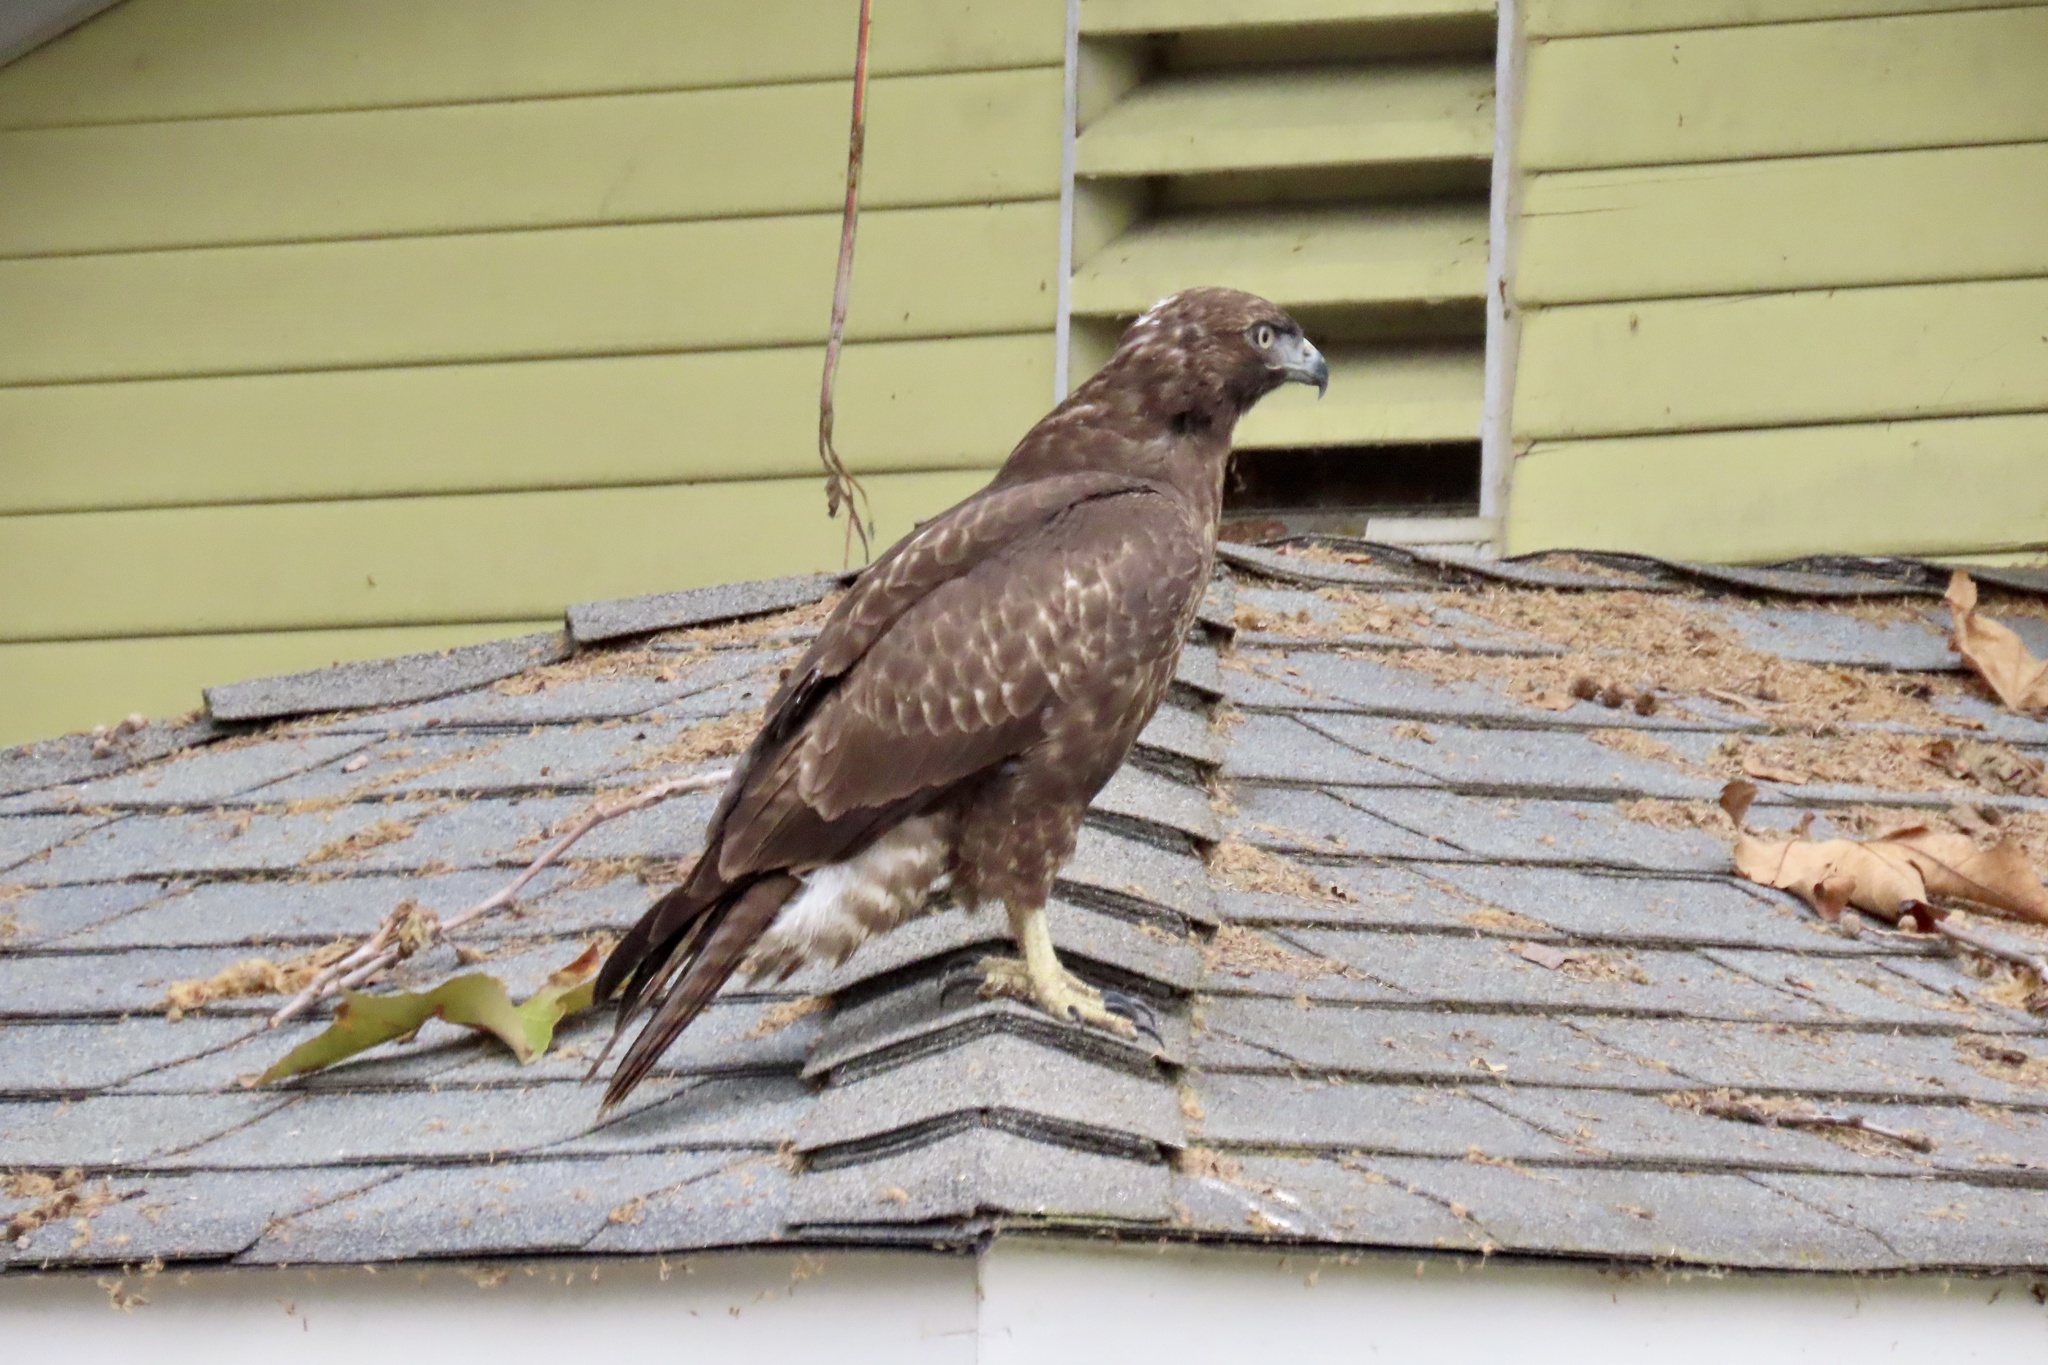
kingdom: Animalia
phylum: Chordata
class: Aves
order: Accipitriformes
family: Accipitridae
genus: Buteo
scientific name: Buteo jamaicensis
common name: Red-tailed hawk
